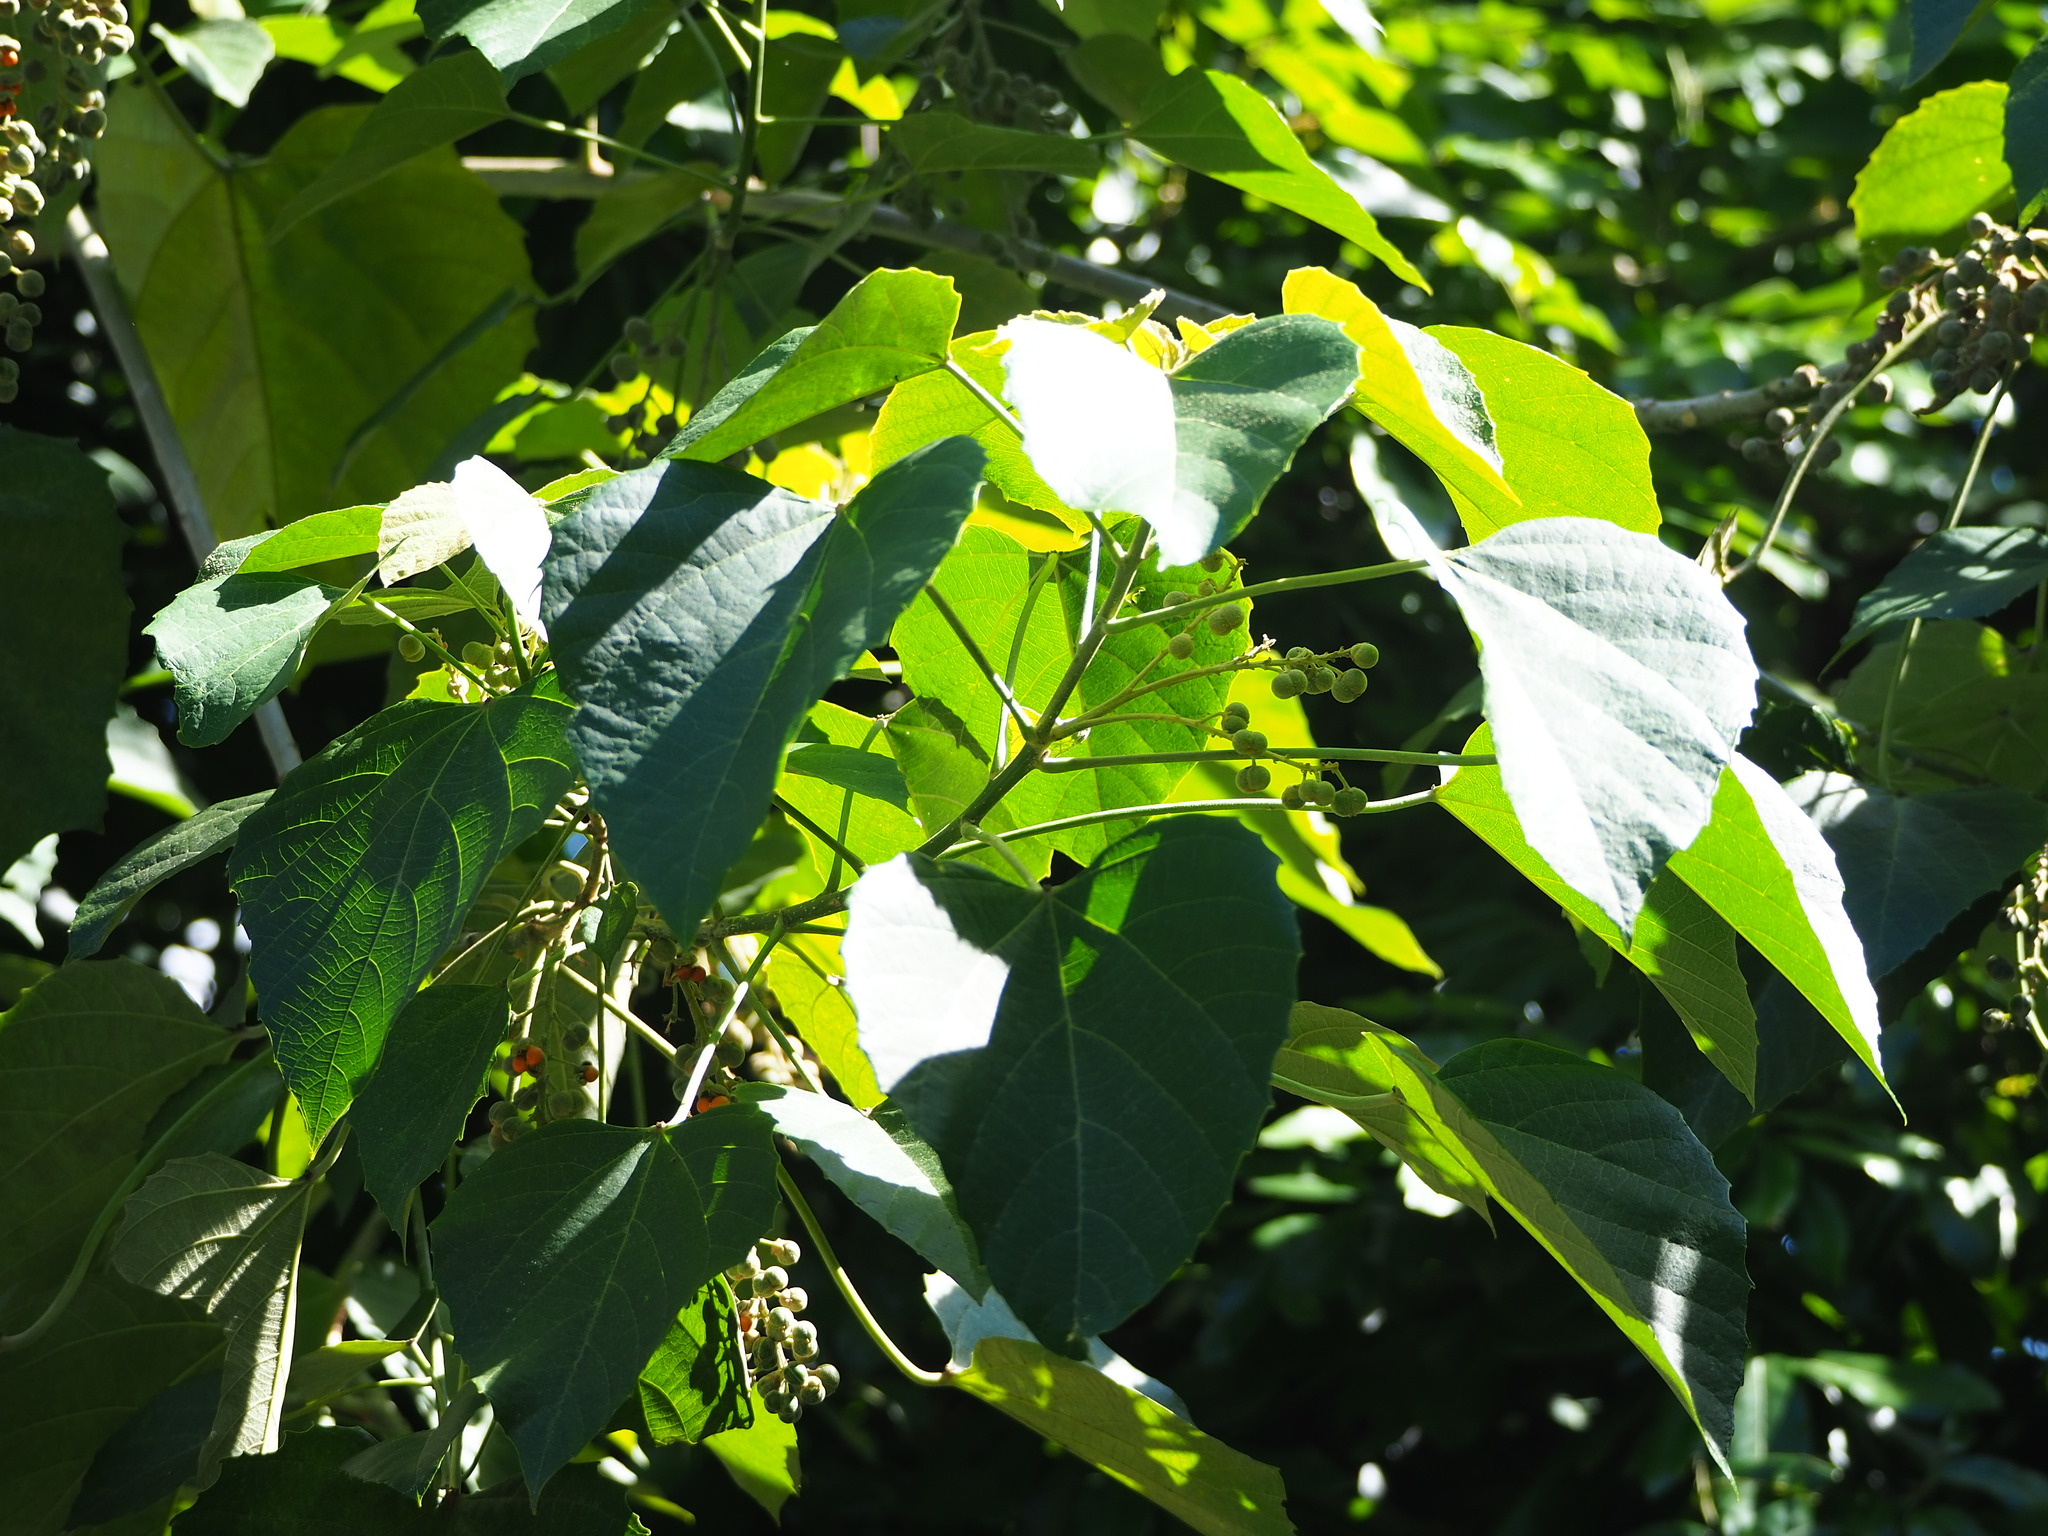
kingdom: Plantae
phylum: Tracheophyta
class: Magnoliopsida
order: Malpighiales
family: Euphorbiaceae
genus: Melanolepis
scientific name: Melanolepis multiglandulosa
